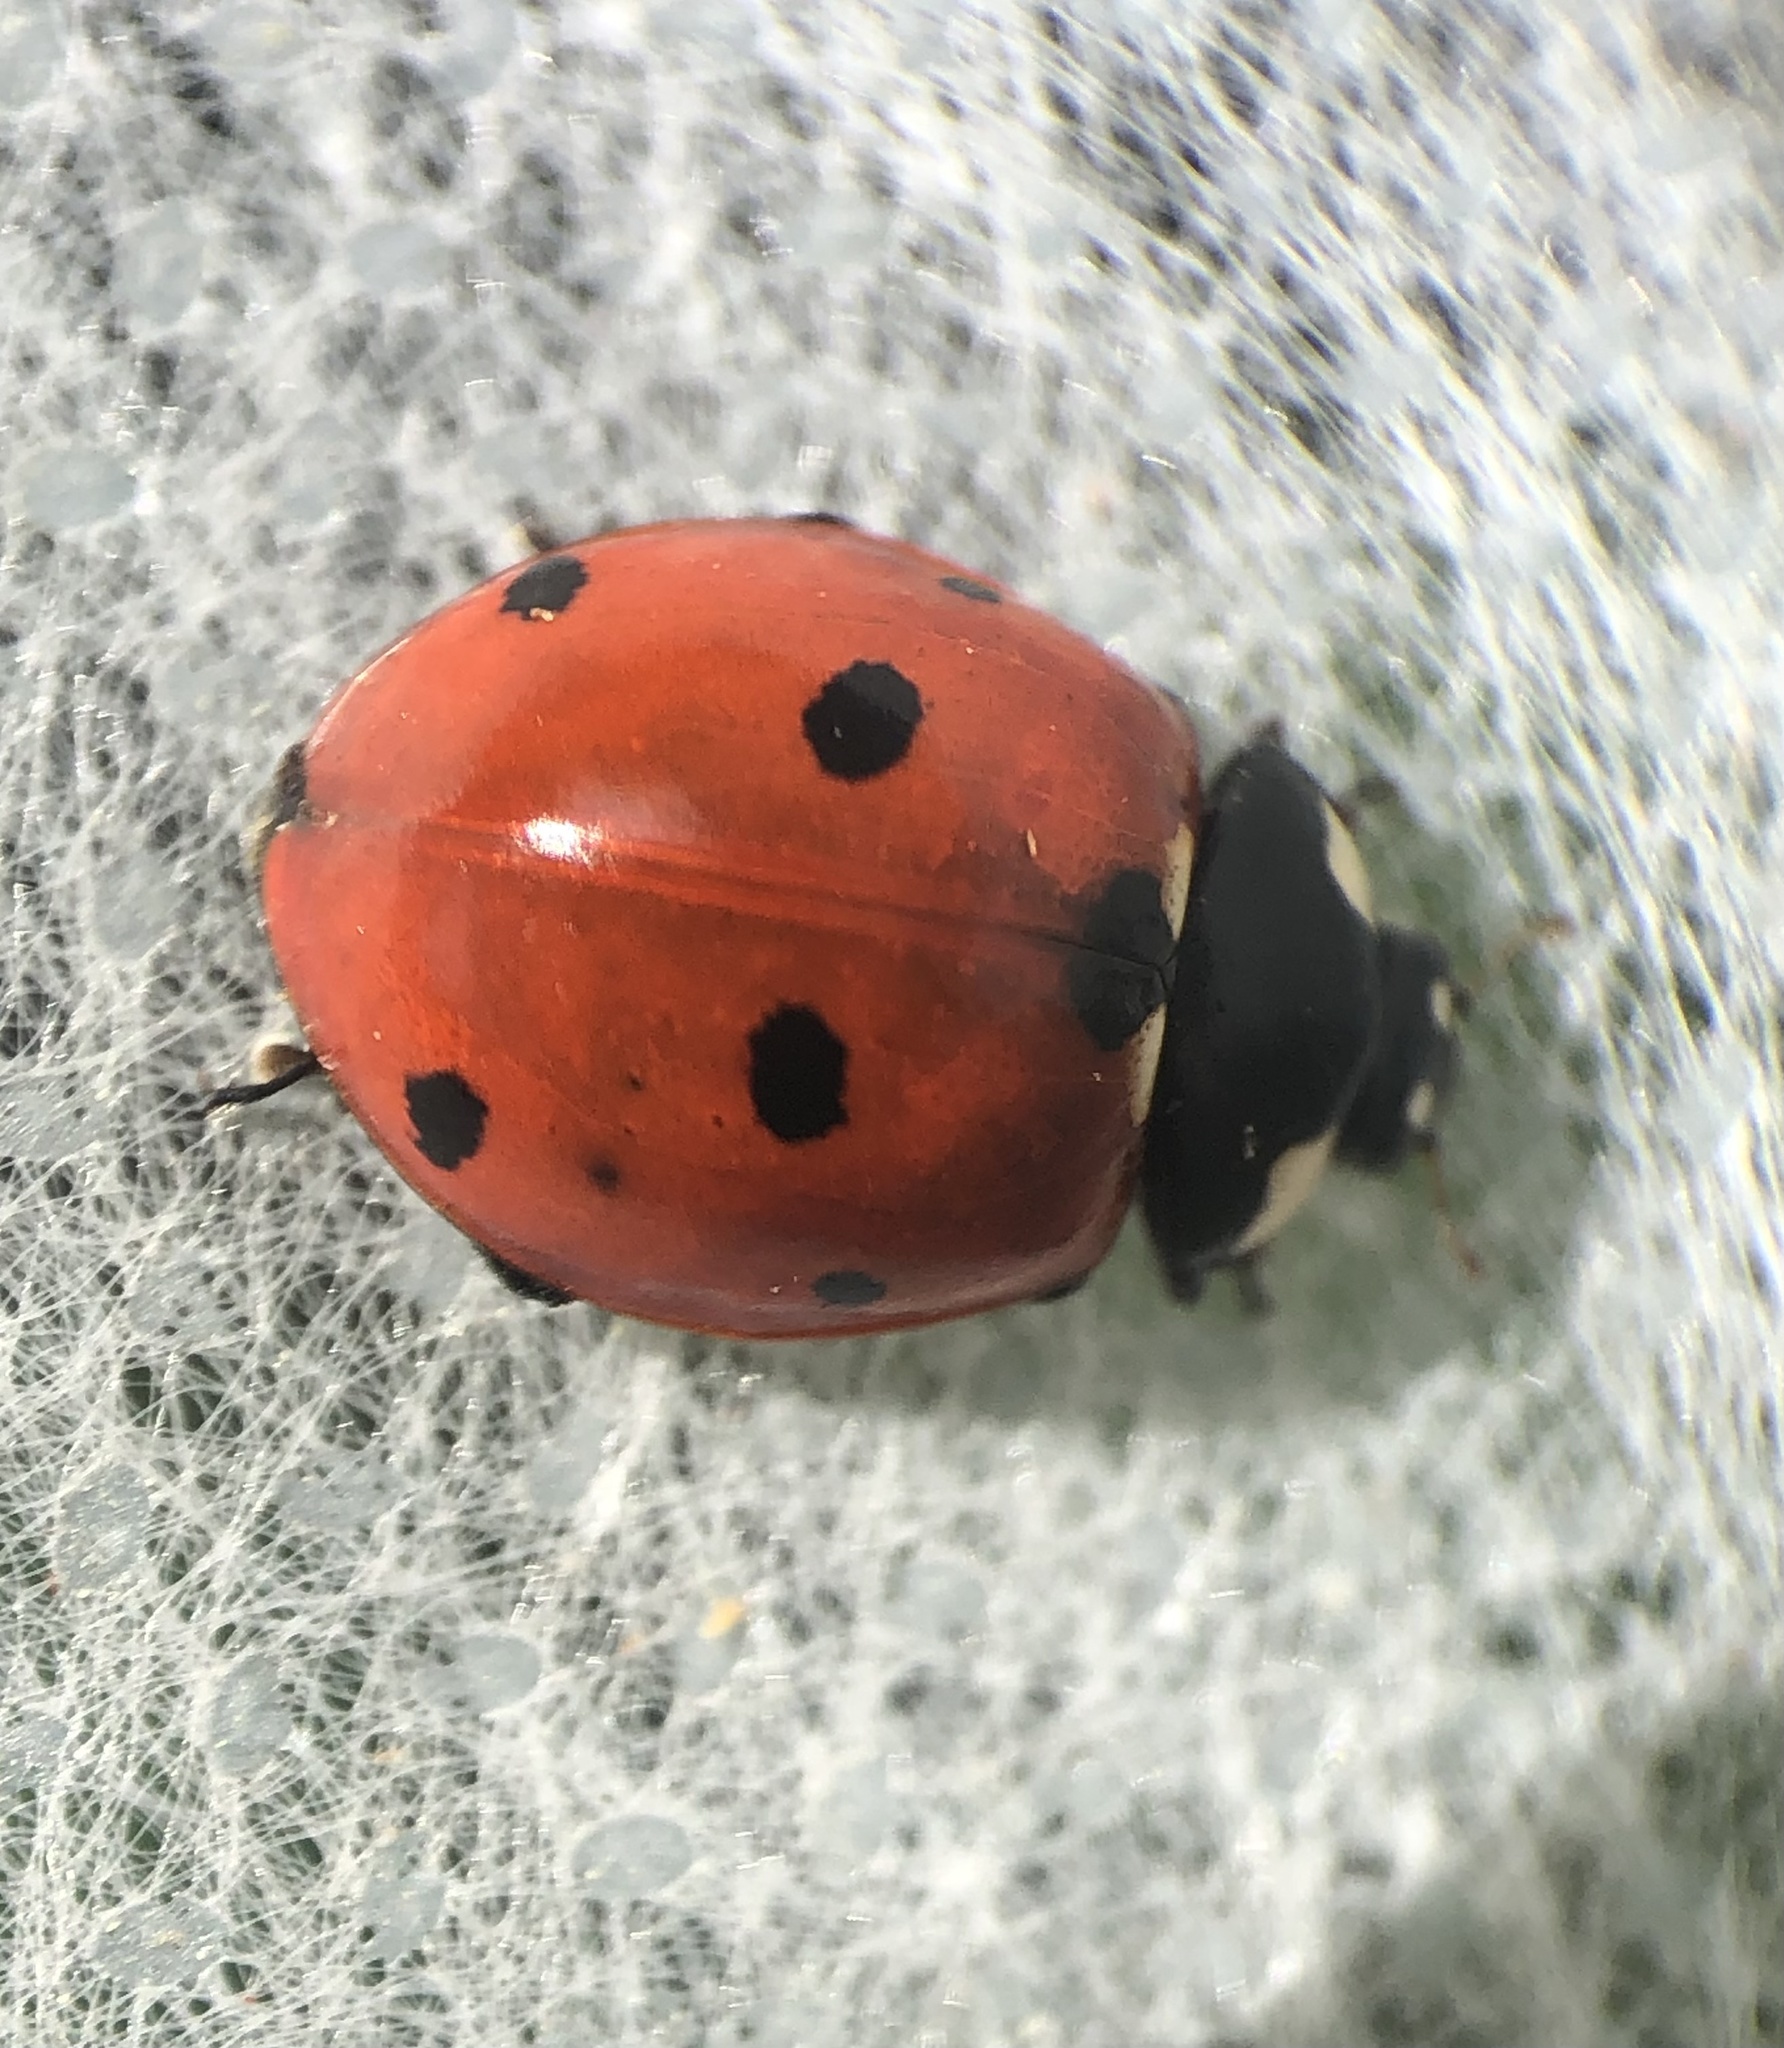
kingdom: Animalia
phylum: Arthropoda
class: Insecta
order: Coleoptera
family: Coccinellidae
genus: Coccinella
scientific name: Coccinella septempunctata
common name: Sevenspotted lady beetle
